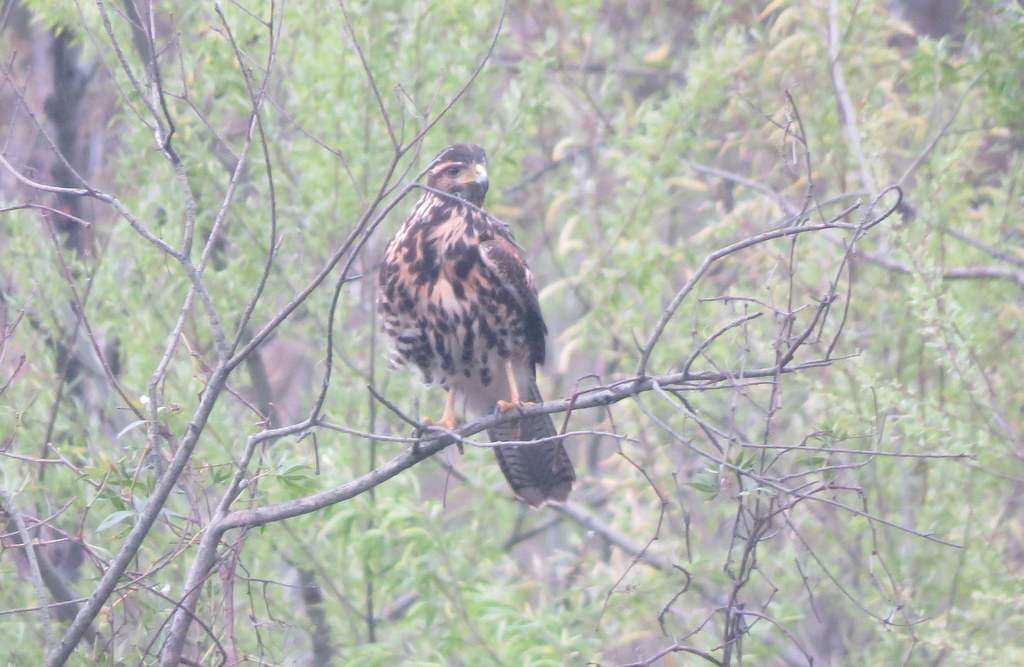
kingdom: Animalia
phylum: Chordata
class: Aves
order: Accipitriformes
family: Accipitridae
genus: Parabuteo
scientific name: Parabuteo unicinctus
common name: Harris's hawk
